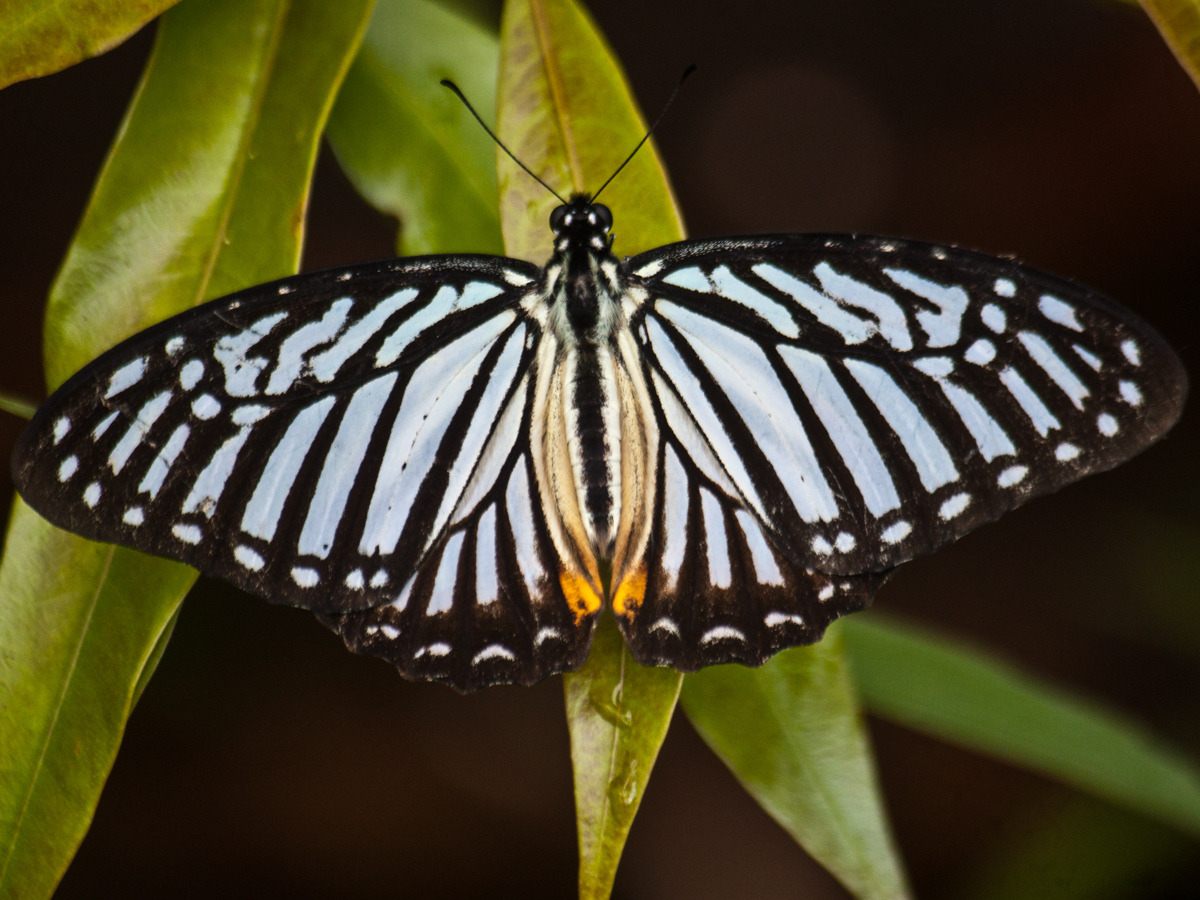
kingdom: Animalia
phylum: Arthropoda
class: Insecta
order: Lepidoptera
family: Papilionidae
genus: Graphium
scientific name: Graphium xenocles
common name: Great zebra
